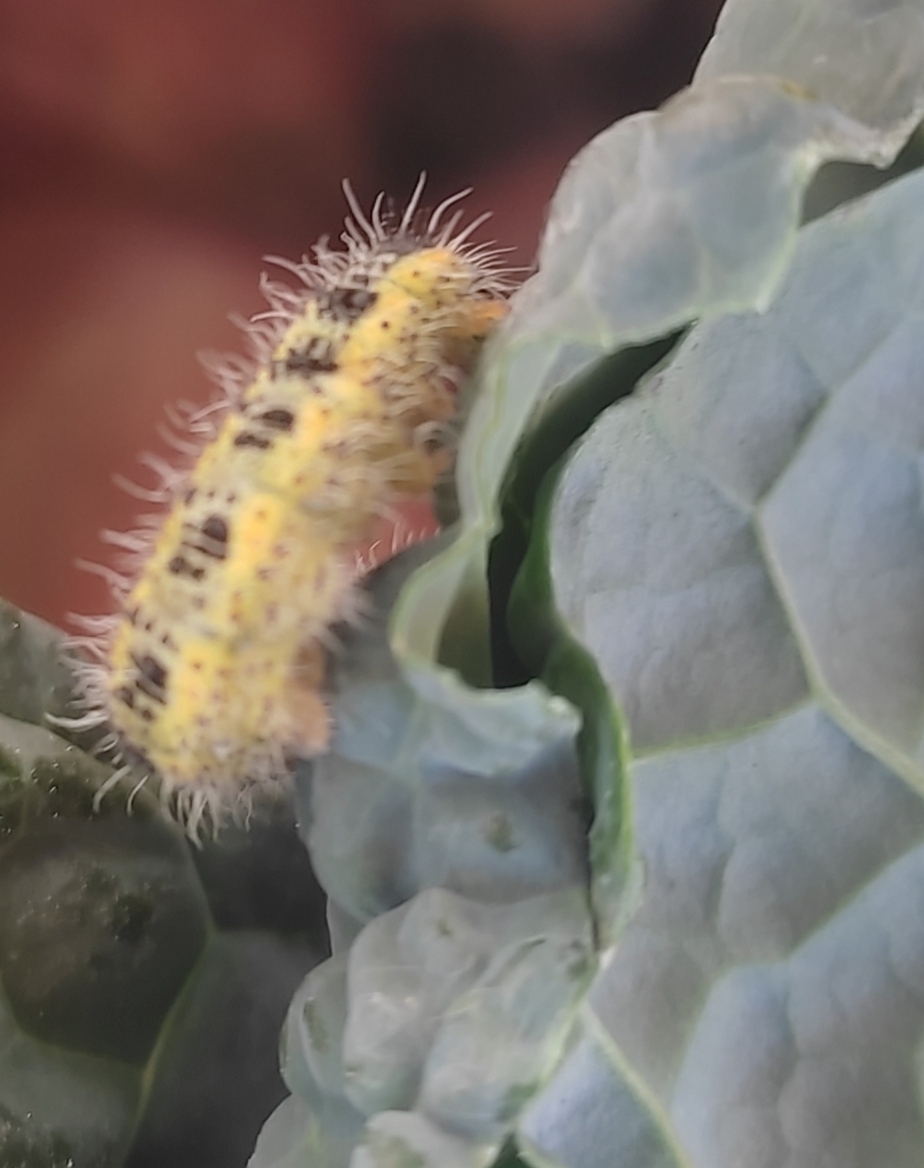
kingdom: Animalia
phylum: Arthropoda
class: Insecta
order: Lepidoptera
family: Pieridae
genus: Pieris
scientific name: Pieris brassicae
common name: Large white
